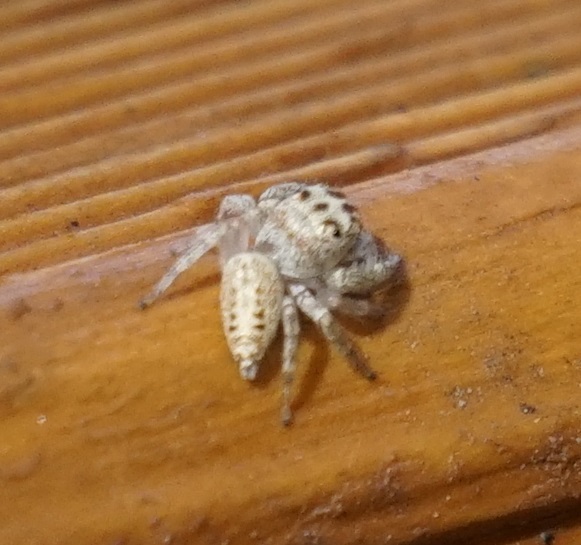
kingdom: Animalia
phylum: Arthropoda
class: Arachnida
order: Araneae
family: Salticidae
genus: Opisthoncus
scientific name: Opisthoncus polyphemus
